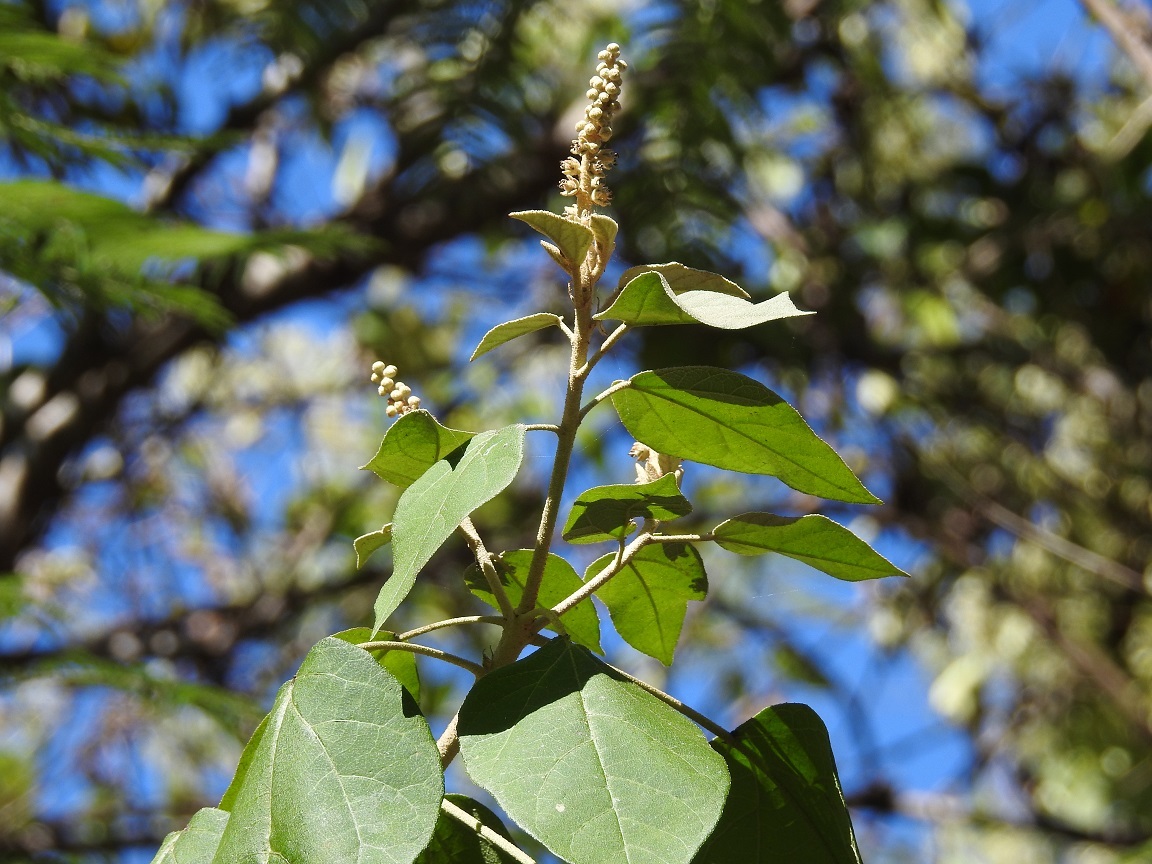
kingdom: Plantae
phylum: Tracheophyta
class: Magnoliopsida
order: Malpighiales
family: Euphorbiaceae
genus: Croton
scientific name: Croton morifolius
